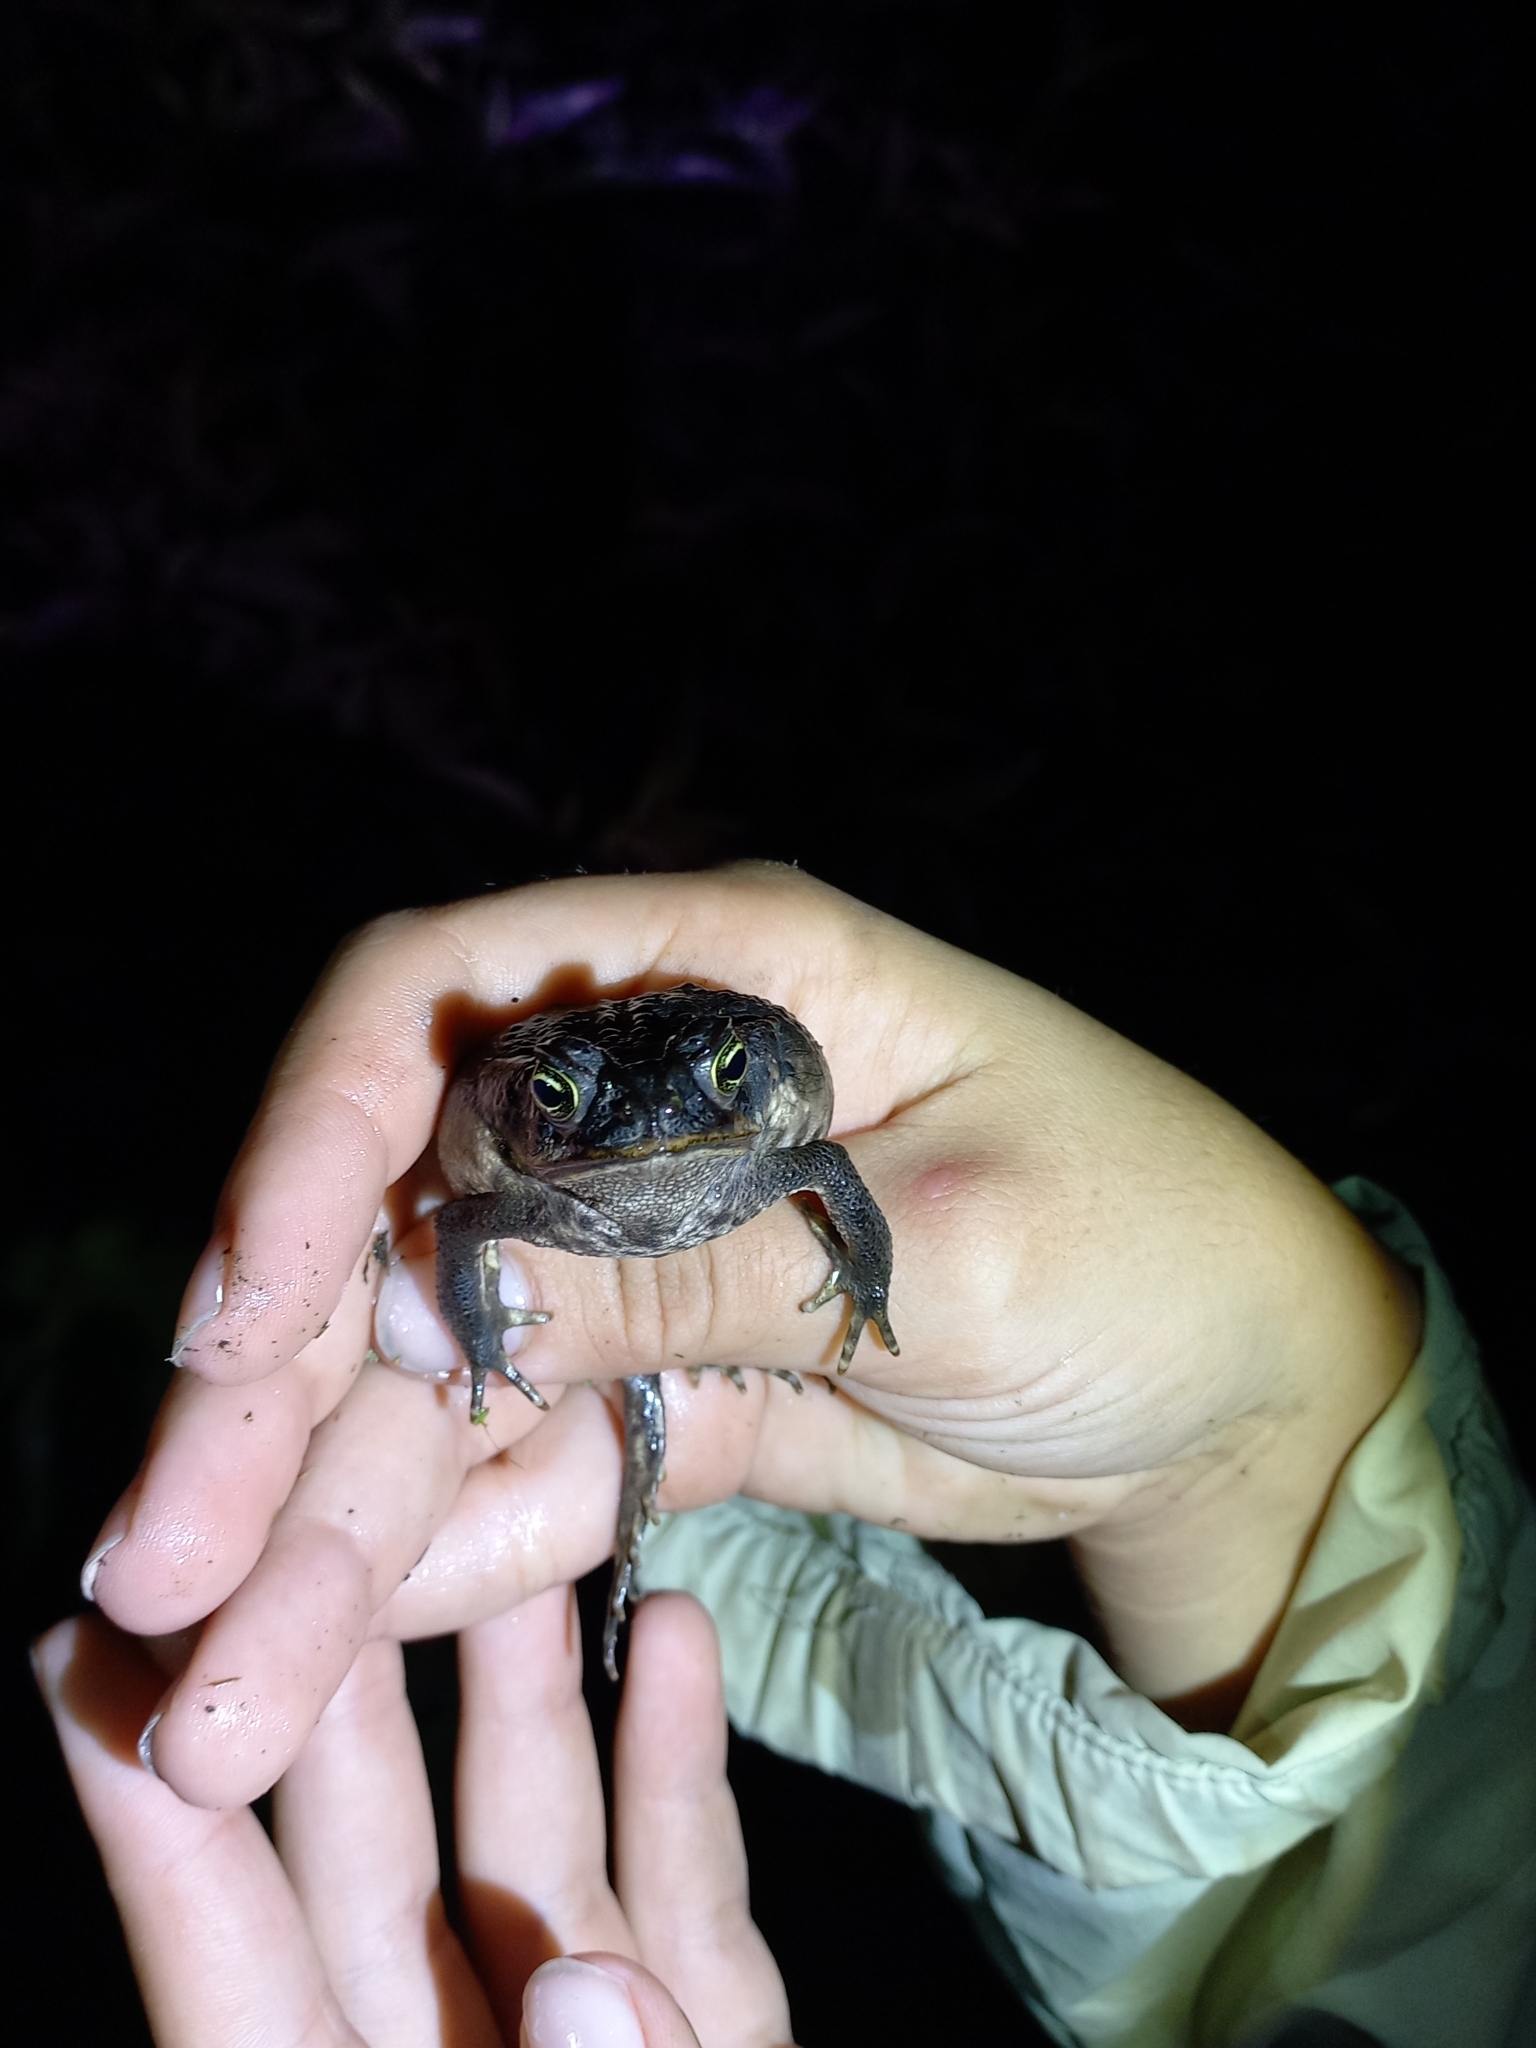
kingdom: Animalia
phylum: Chordata
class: Amphibia
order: Anura
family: Bufonidae
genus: Rhinella
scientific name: Rhinella horribilis
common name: Mesoamerican cane toad
